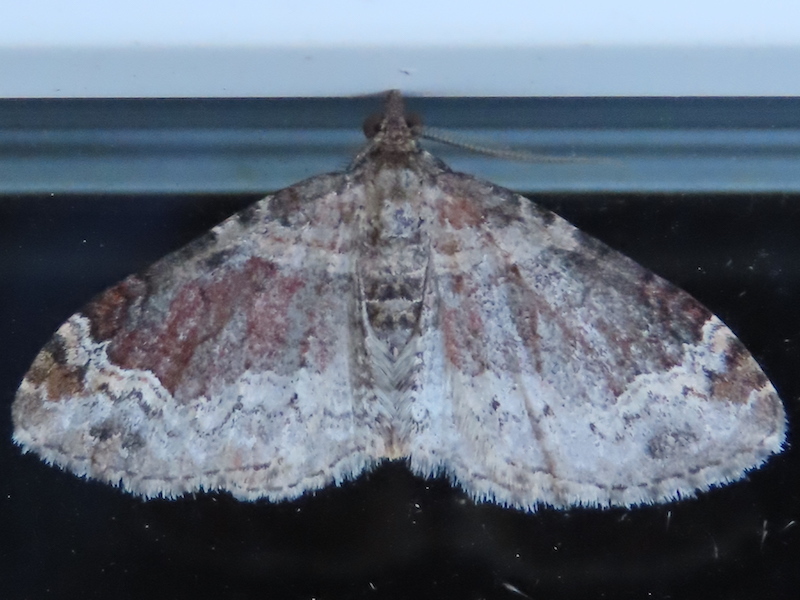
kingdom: Animalia
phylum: Arthropoda
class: Insecta
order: Lepidoptera
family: Geometridae
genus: Xanthorhoe
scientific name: Xanthorhoe ferrugata
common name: Dark-barred twin-spot carpet
